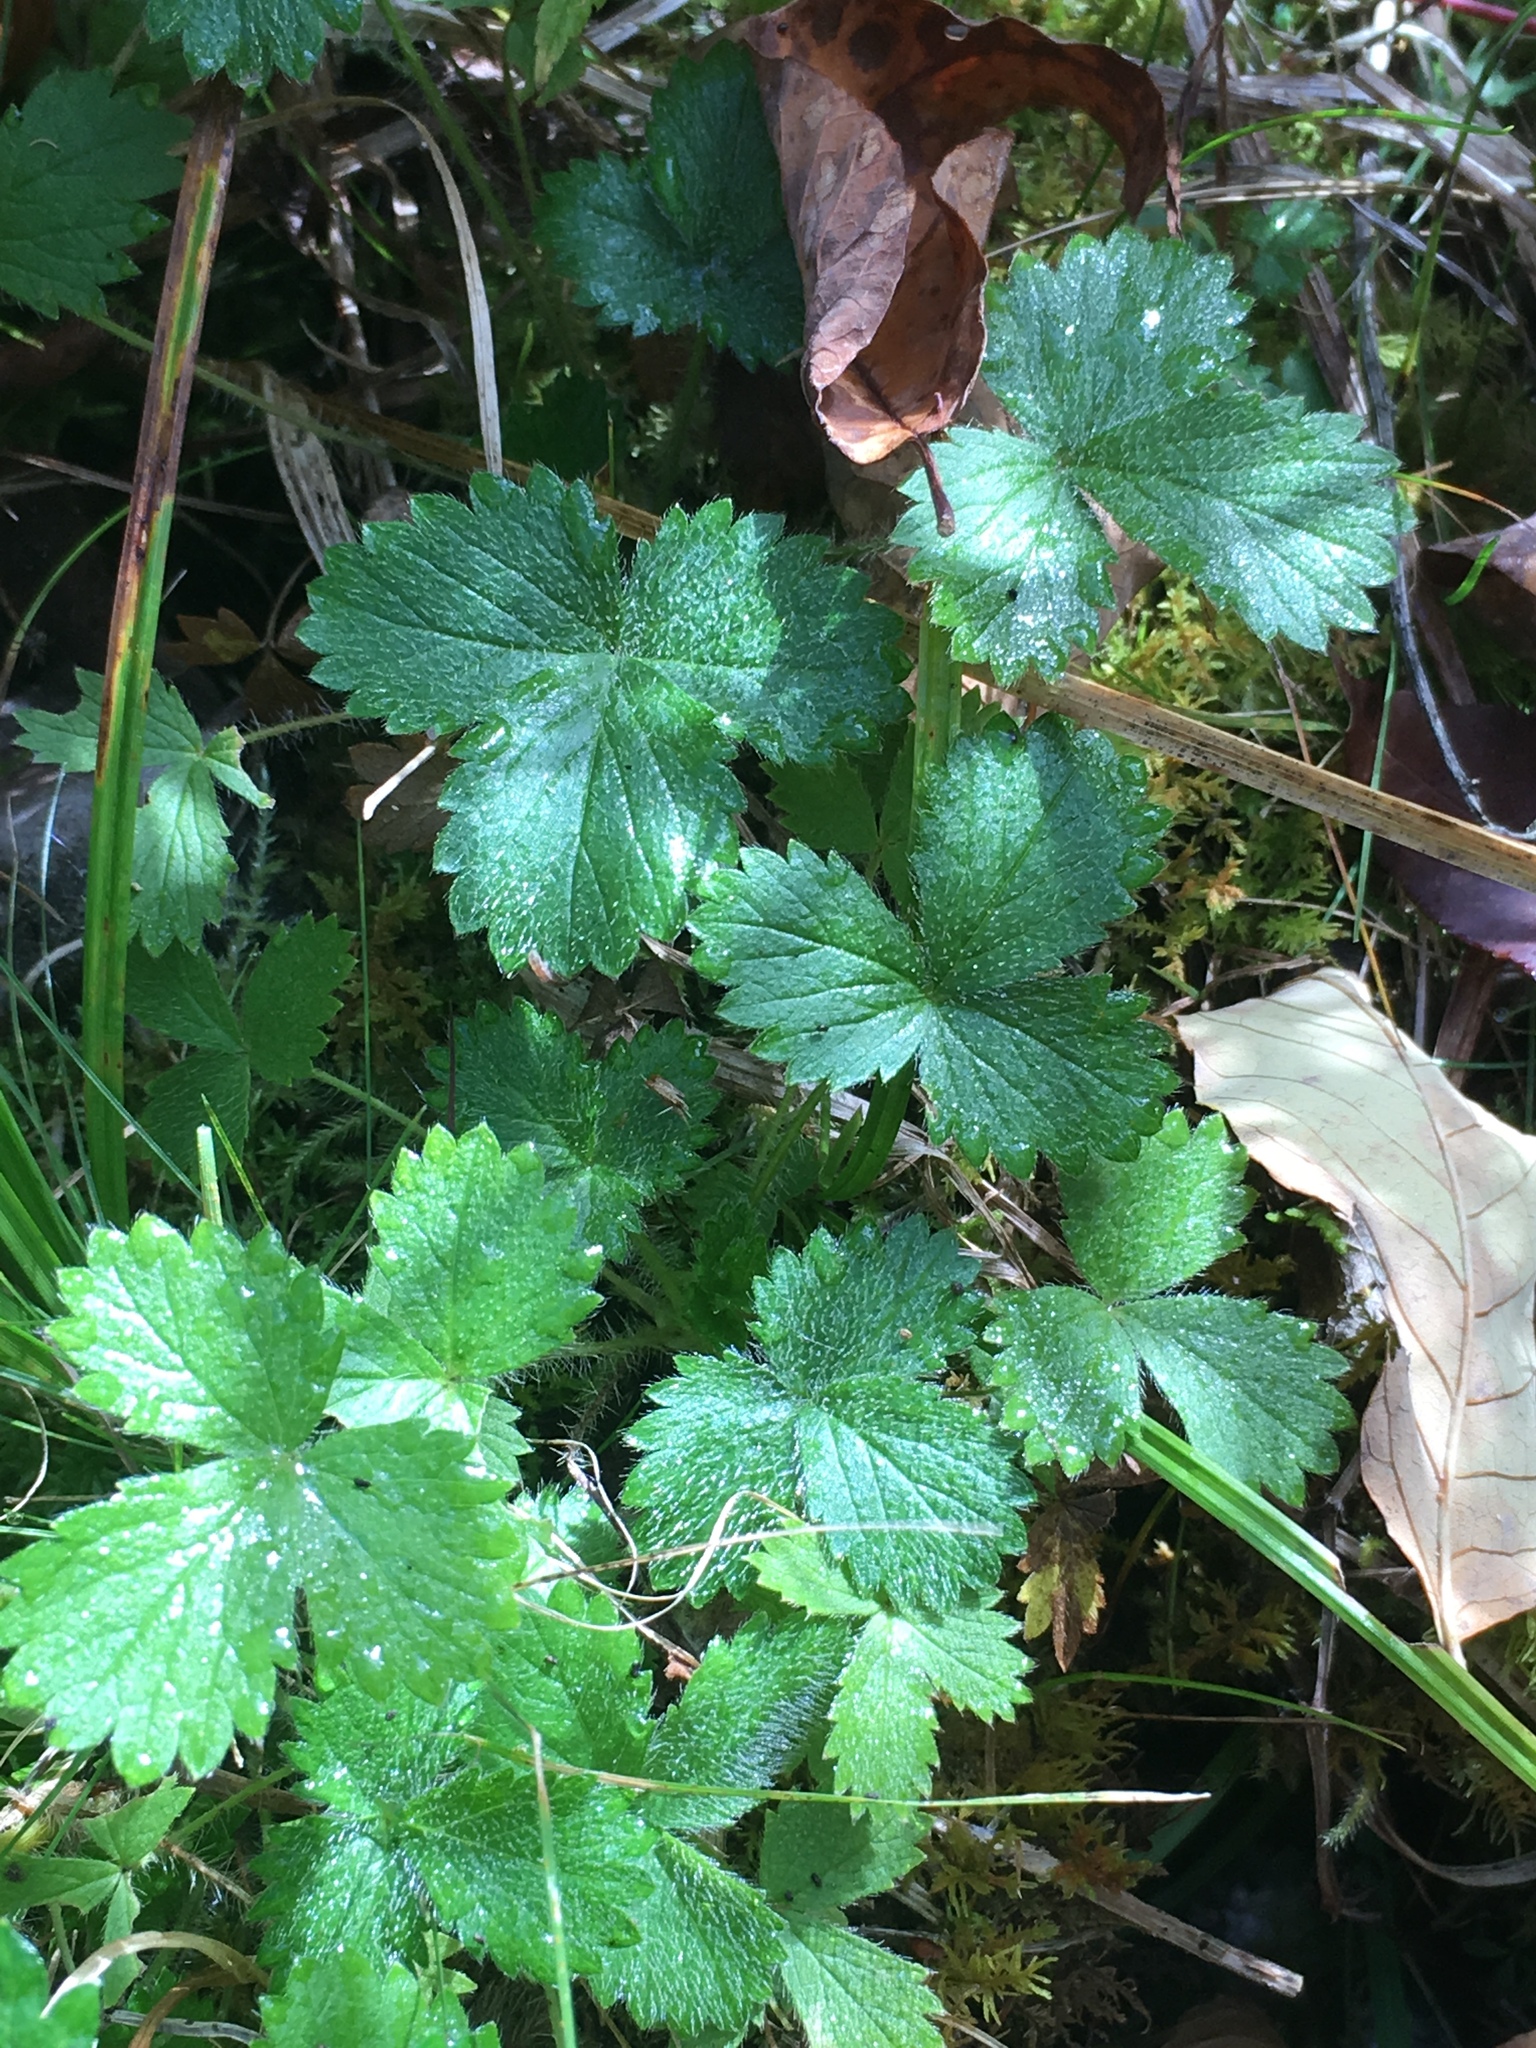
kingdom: Plantae
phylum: Tracheophyta
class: Magnoliopsida
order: Rosales
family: Rosaceae
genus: Fragaria
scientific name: Fragaria vesca
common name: Wild strawberry
